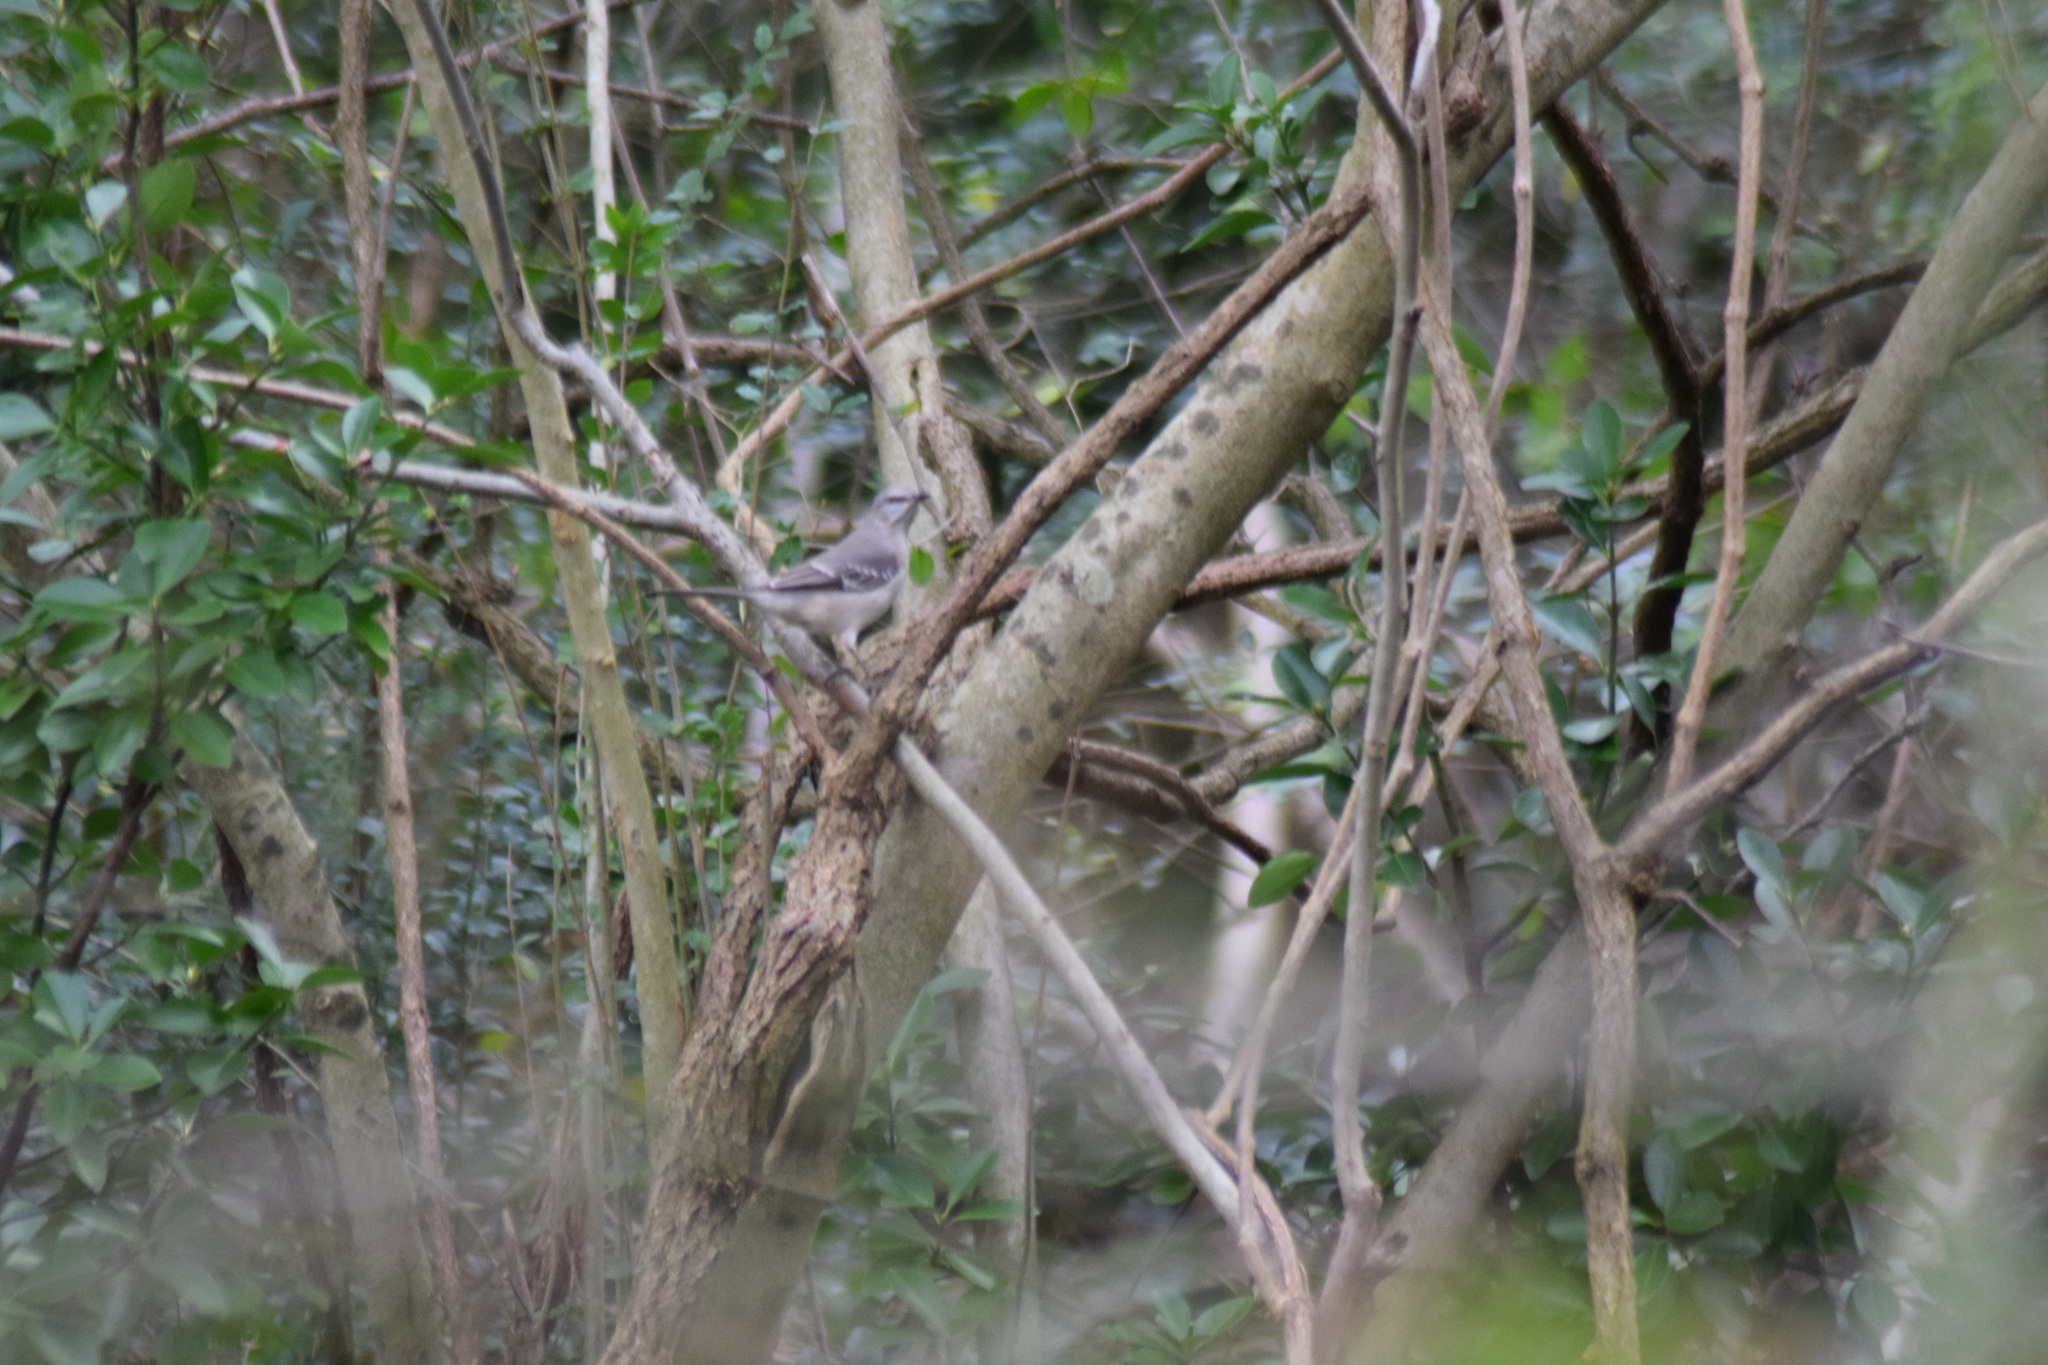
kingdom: Animalia
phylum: Chordata
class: Aves
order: Passeriformes
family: Mimidae
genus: Mimus
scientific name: Mimus polyglottos
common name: Northern mockingbird
